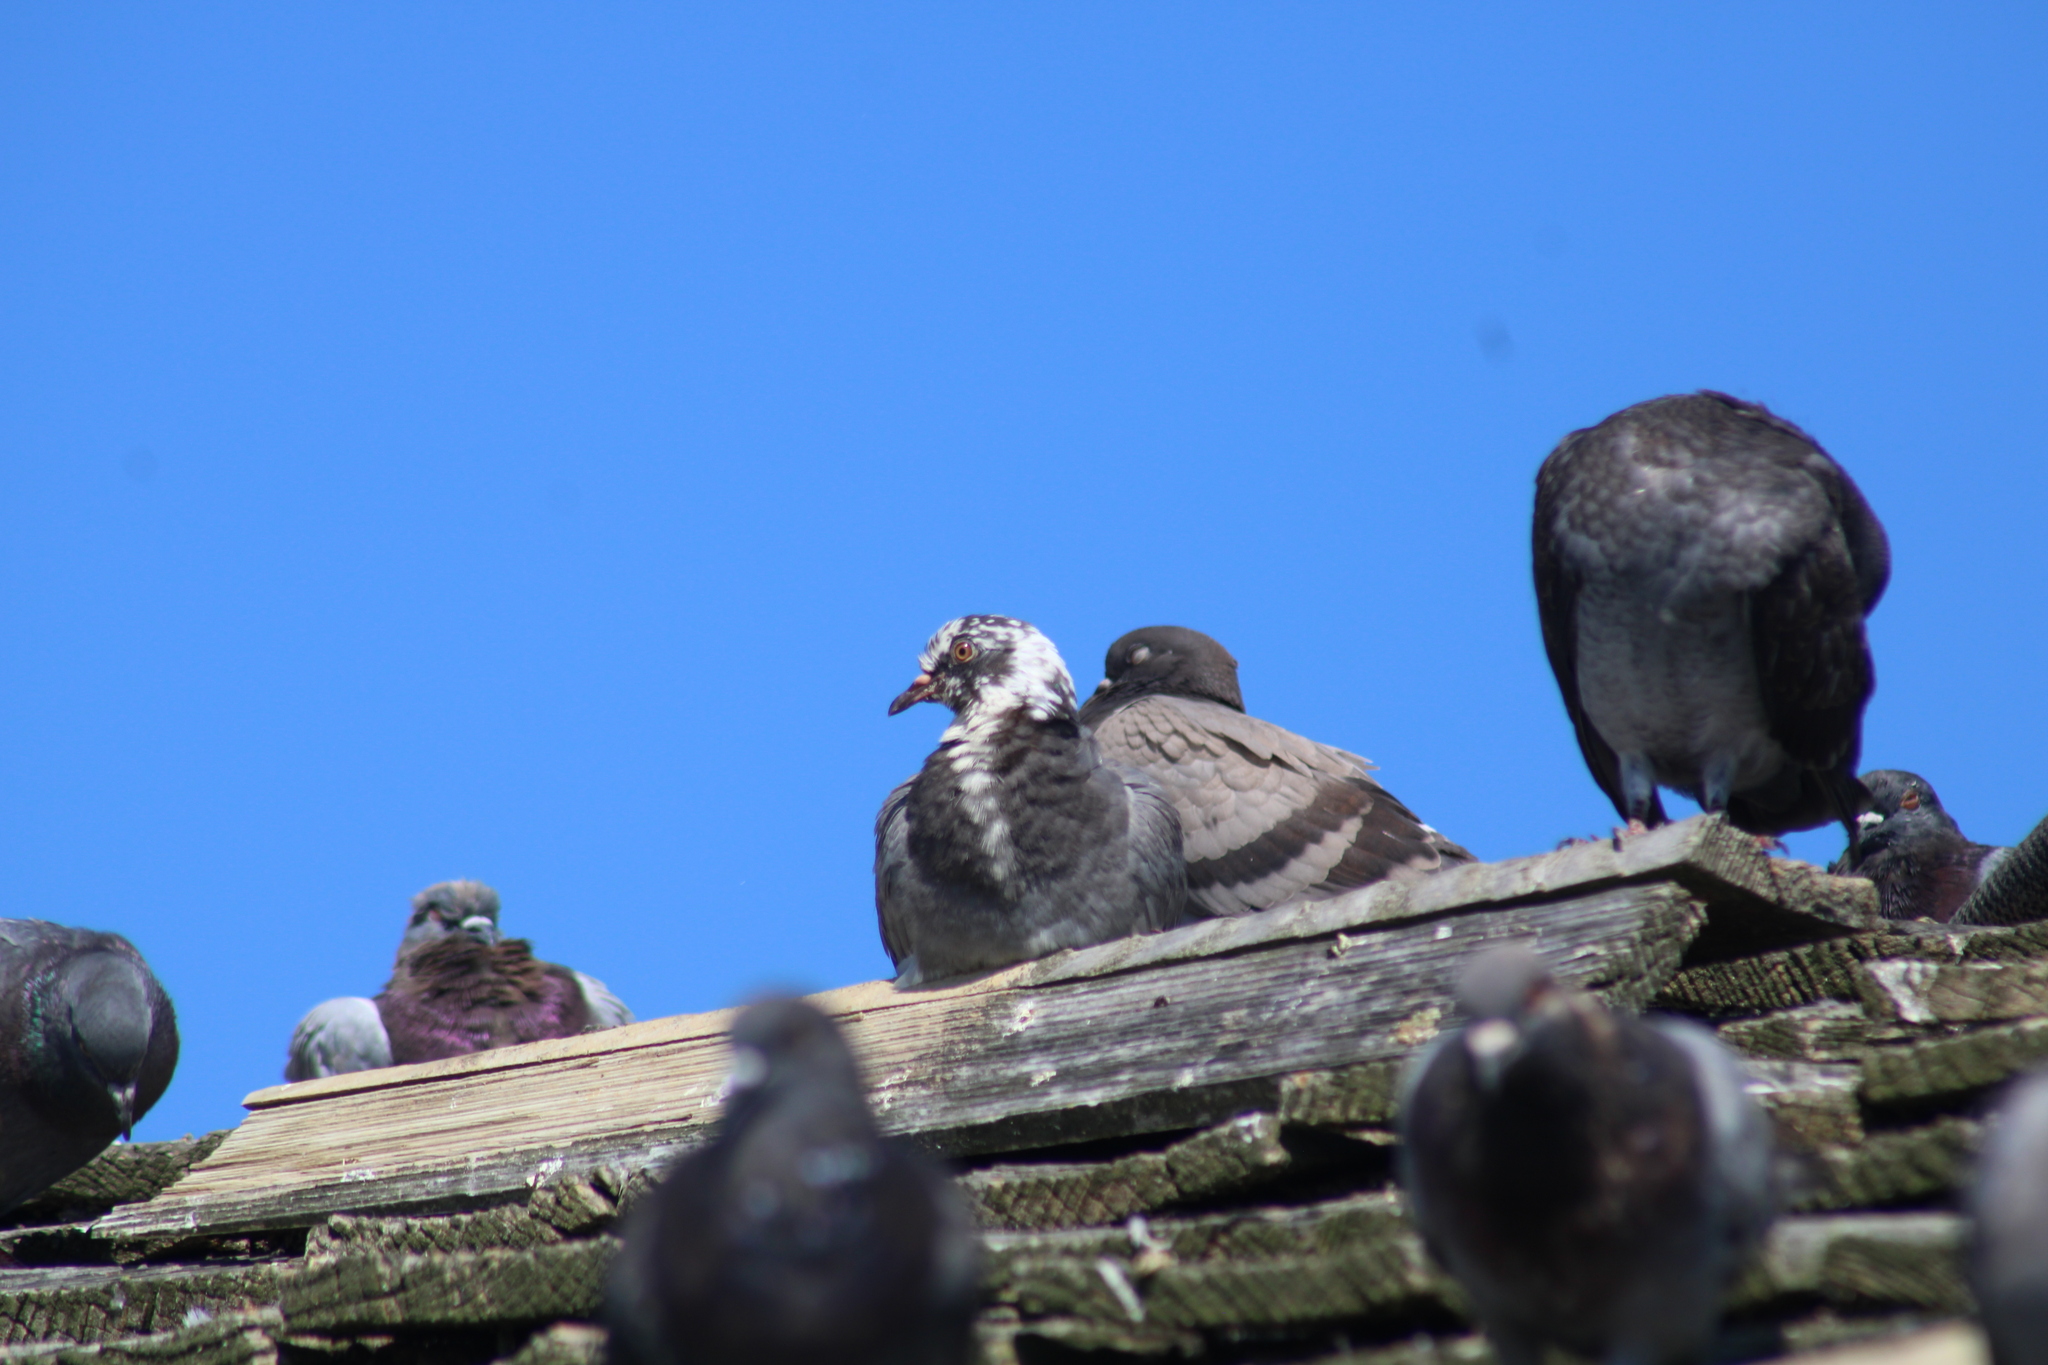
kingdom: Animalia
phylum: Chordata
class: Aves
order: Columbiformes
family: Columbidae
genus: Columba
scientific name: Columba livia
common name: Rock pigeon
